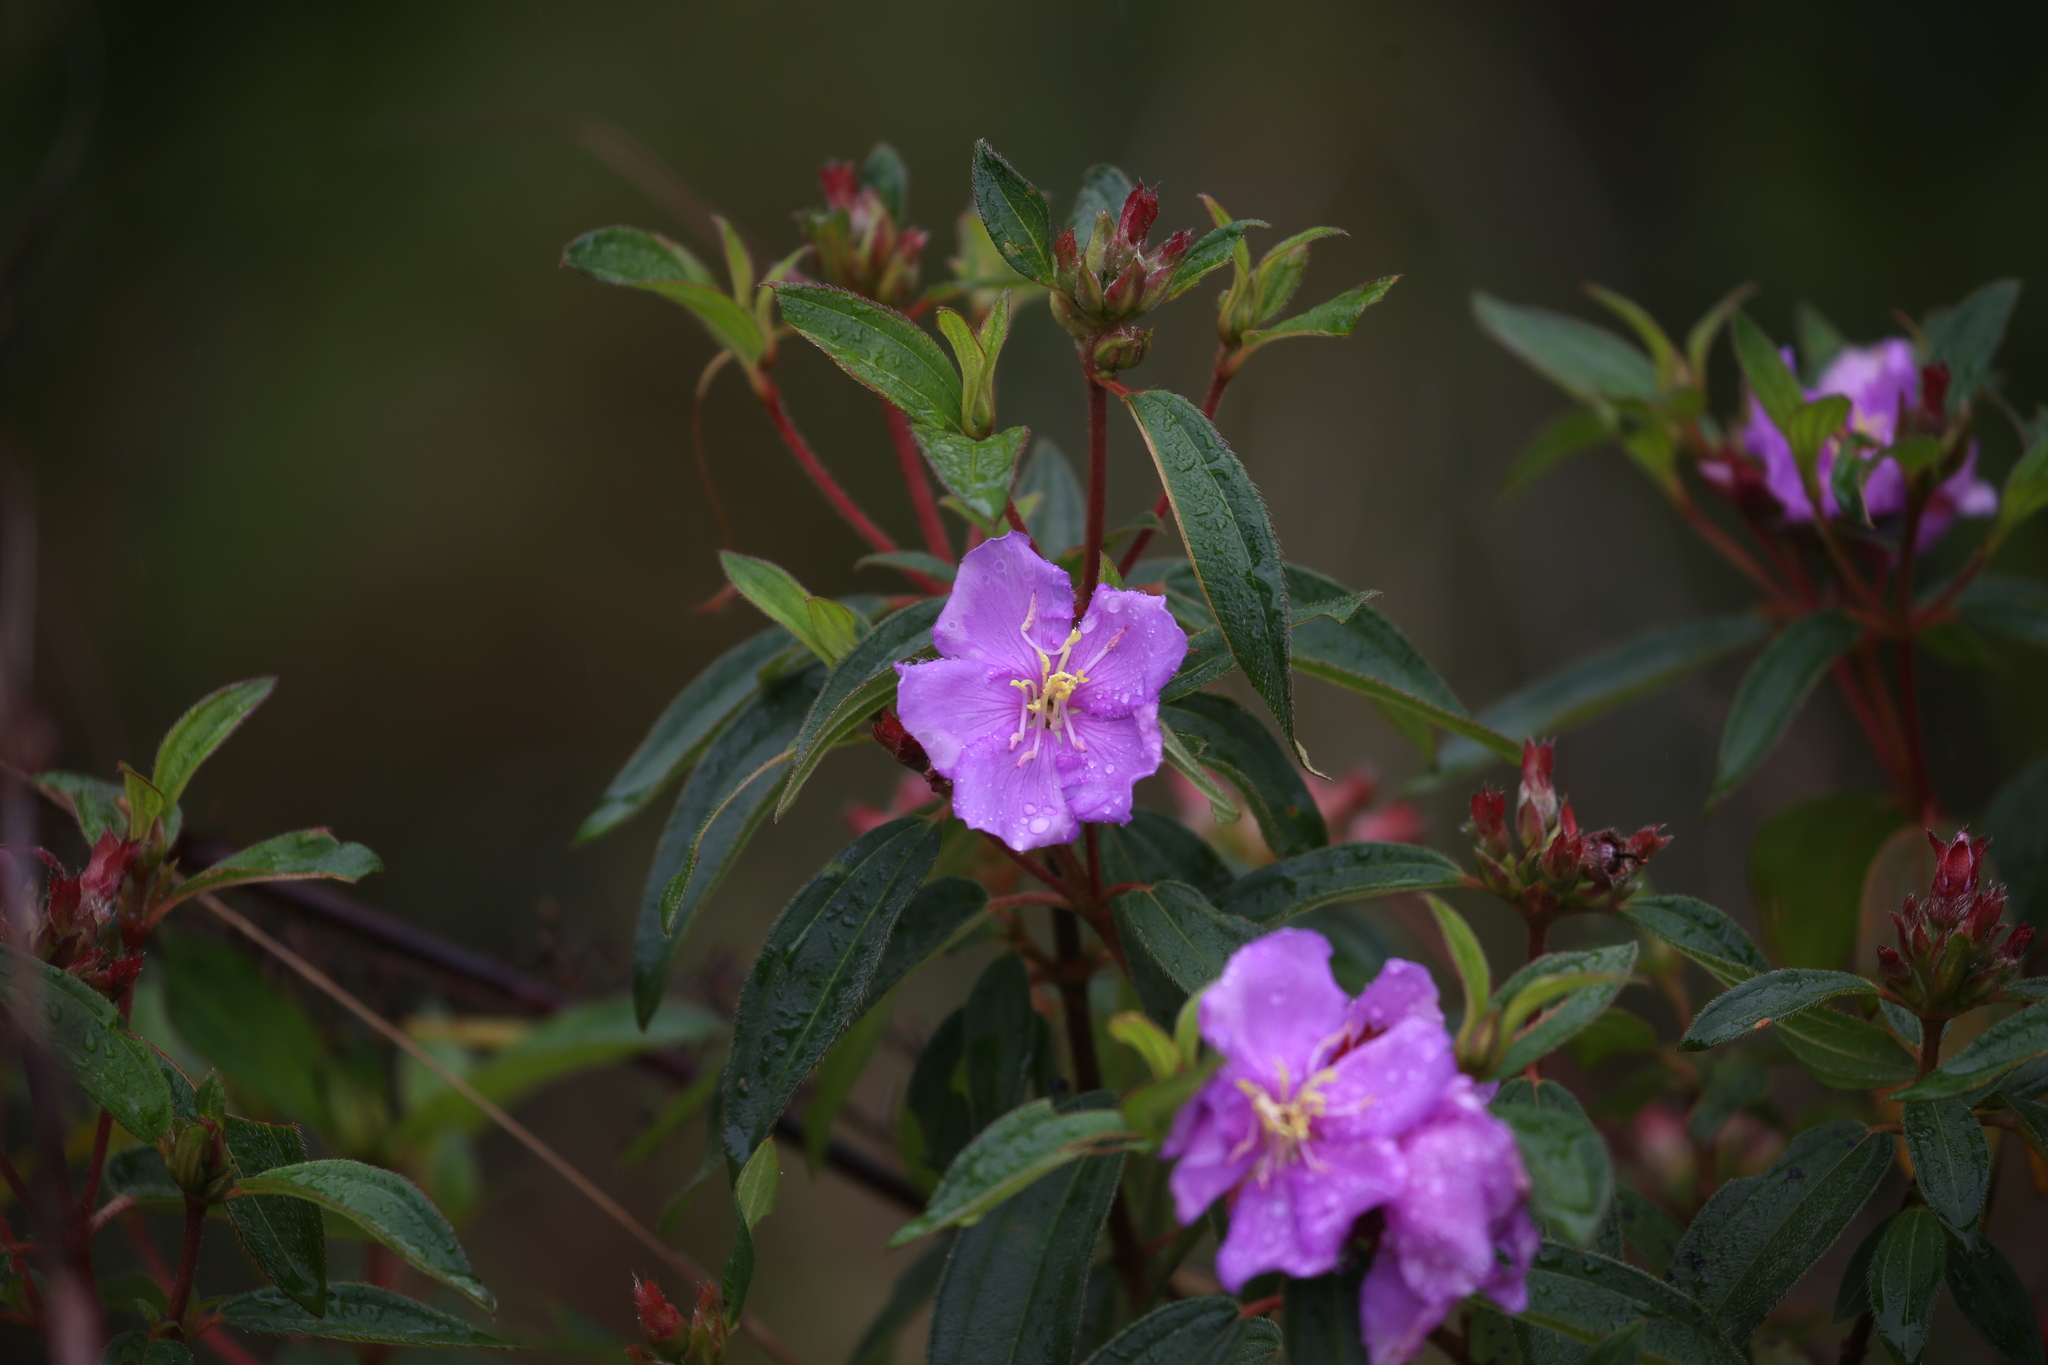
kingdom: Plantae
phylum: Tracheophyta
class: Magnoliopsida
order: Myrtales
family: Melastomataceae
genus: Melastoma
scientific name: Melastoma malabathricum
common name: Indian-rhododendron
